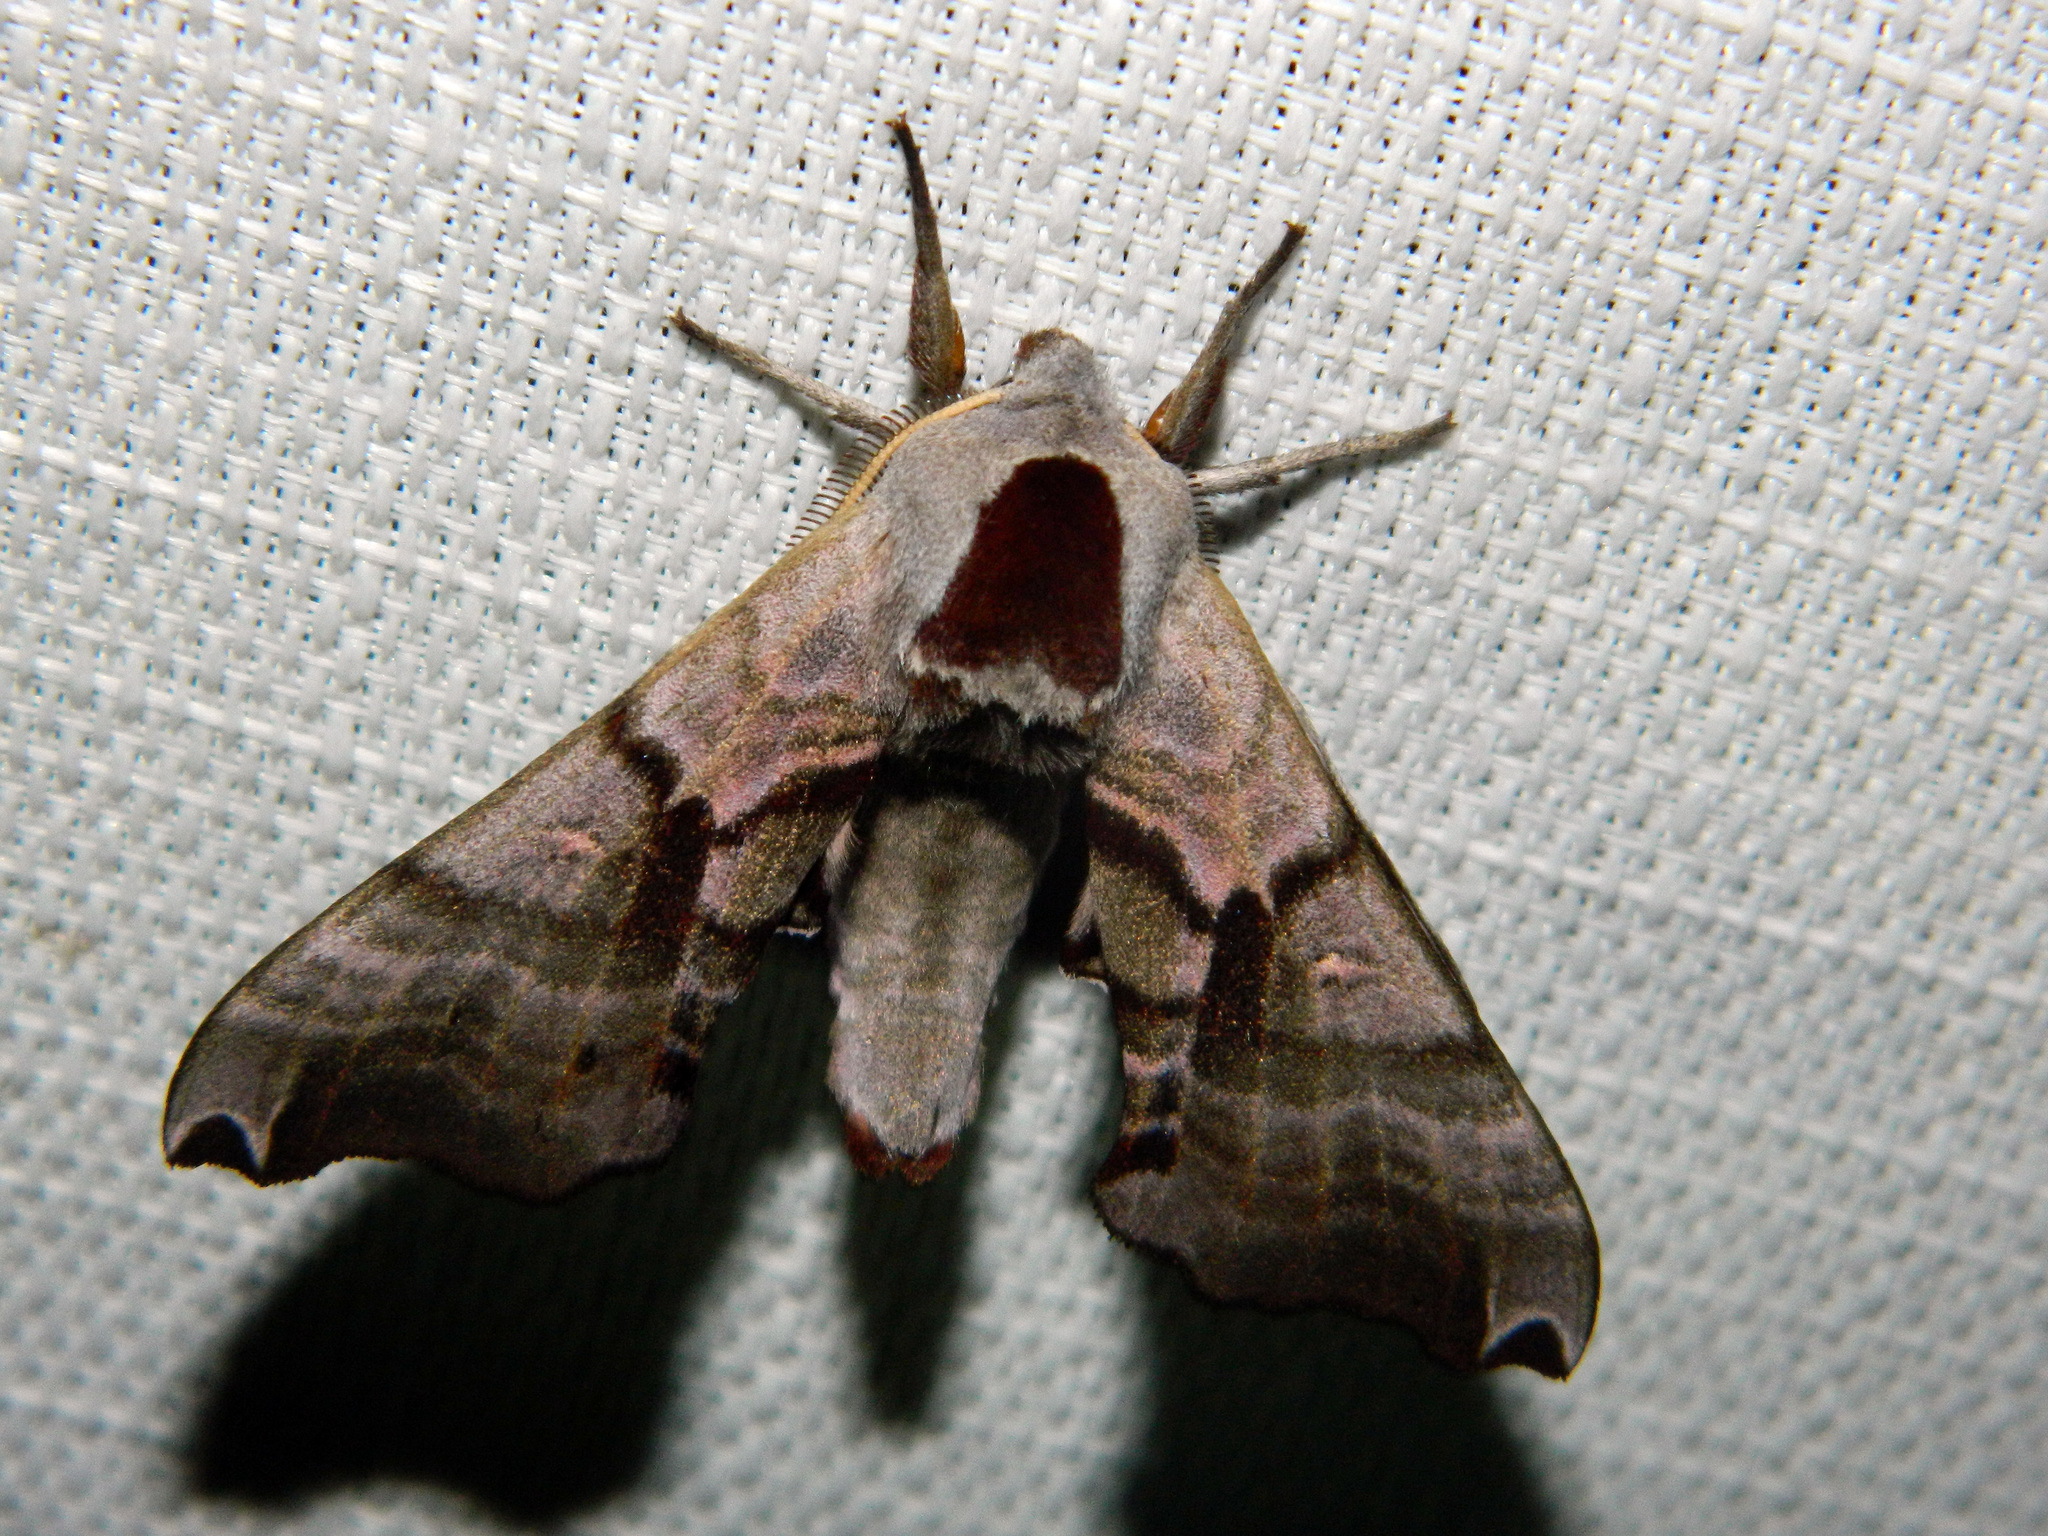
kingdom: Animalia
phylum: Arthropoda
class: Insecta
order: Lepidoptera
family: Sphingidae
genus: Smerinthus
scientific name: Smerinthus jamaicensis
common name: Twin spotted sphinx
